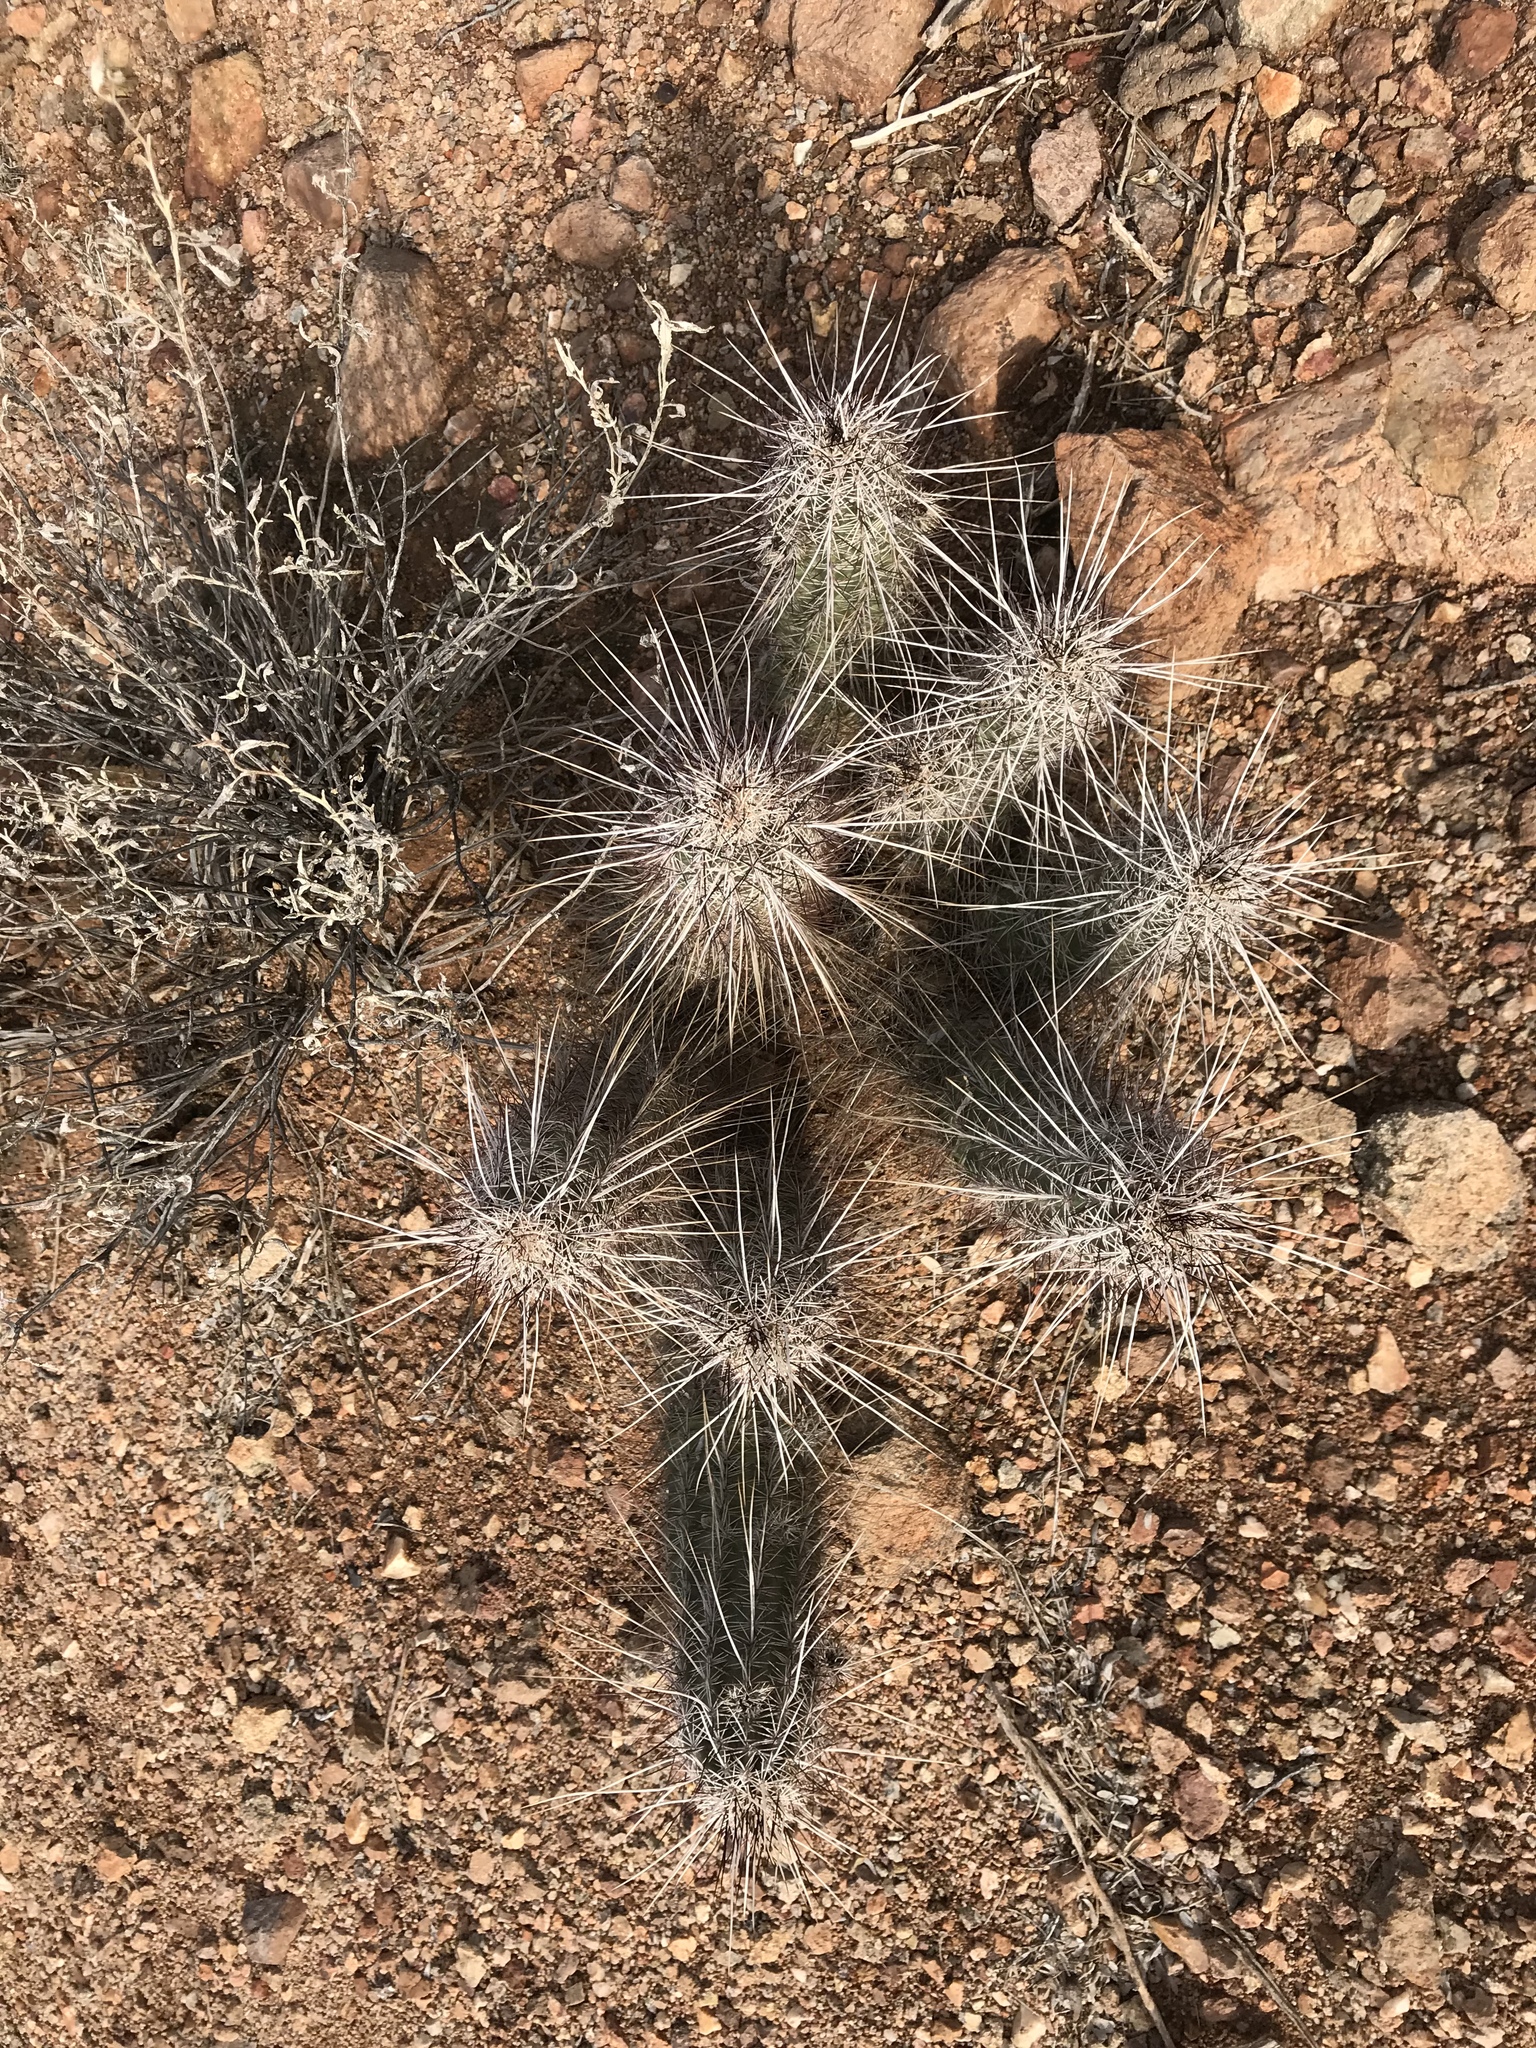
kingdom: Plantae
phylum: Tracheophyta
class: Magnoliopsida
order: Caryophyllales
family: Cactaceae
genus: Echinocereus
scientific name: Echinocereus engelmannii
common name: Engelmann's hedgehog cactus
